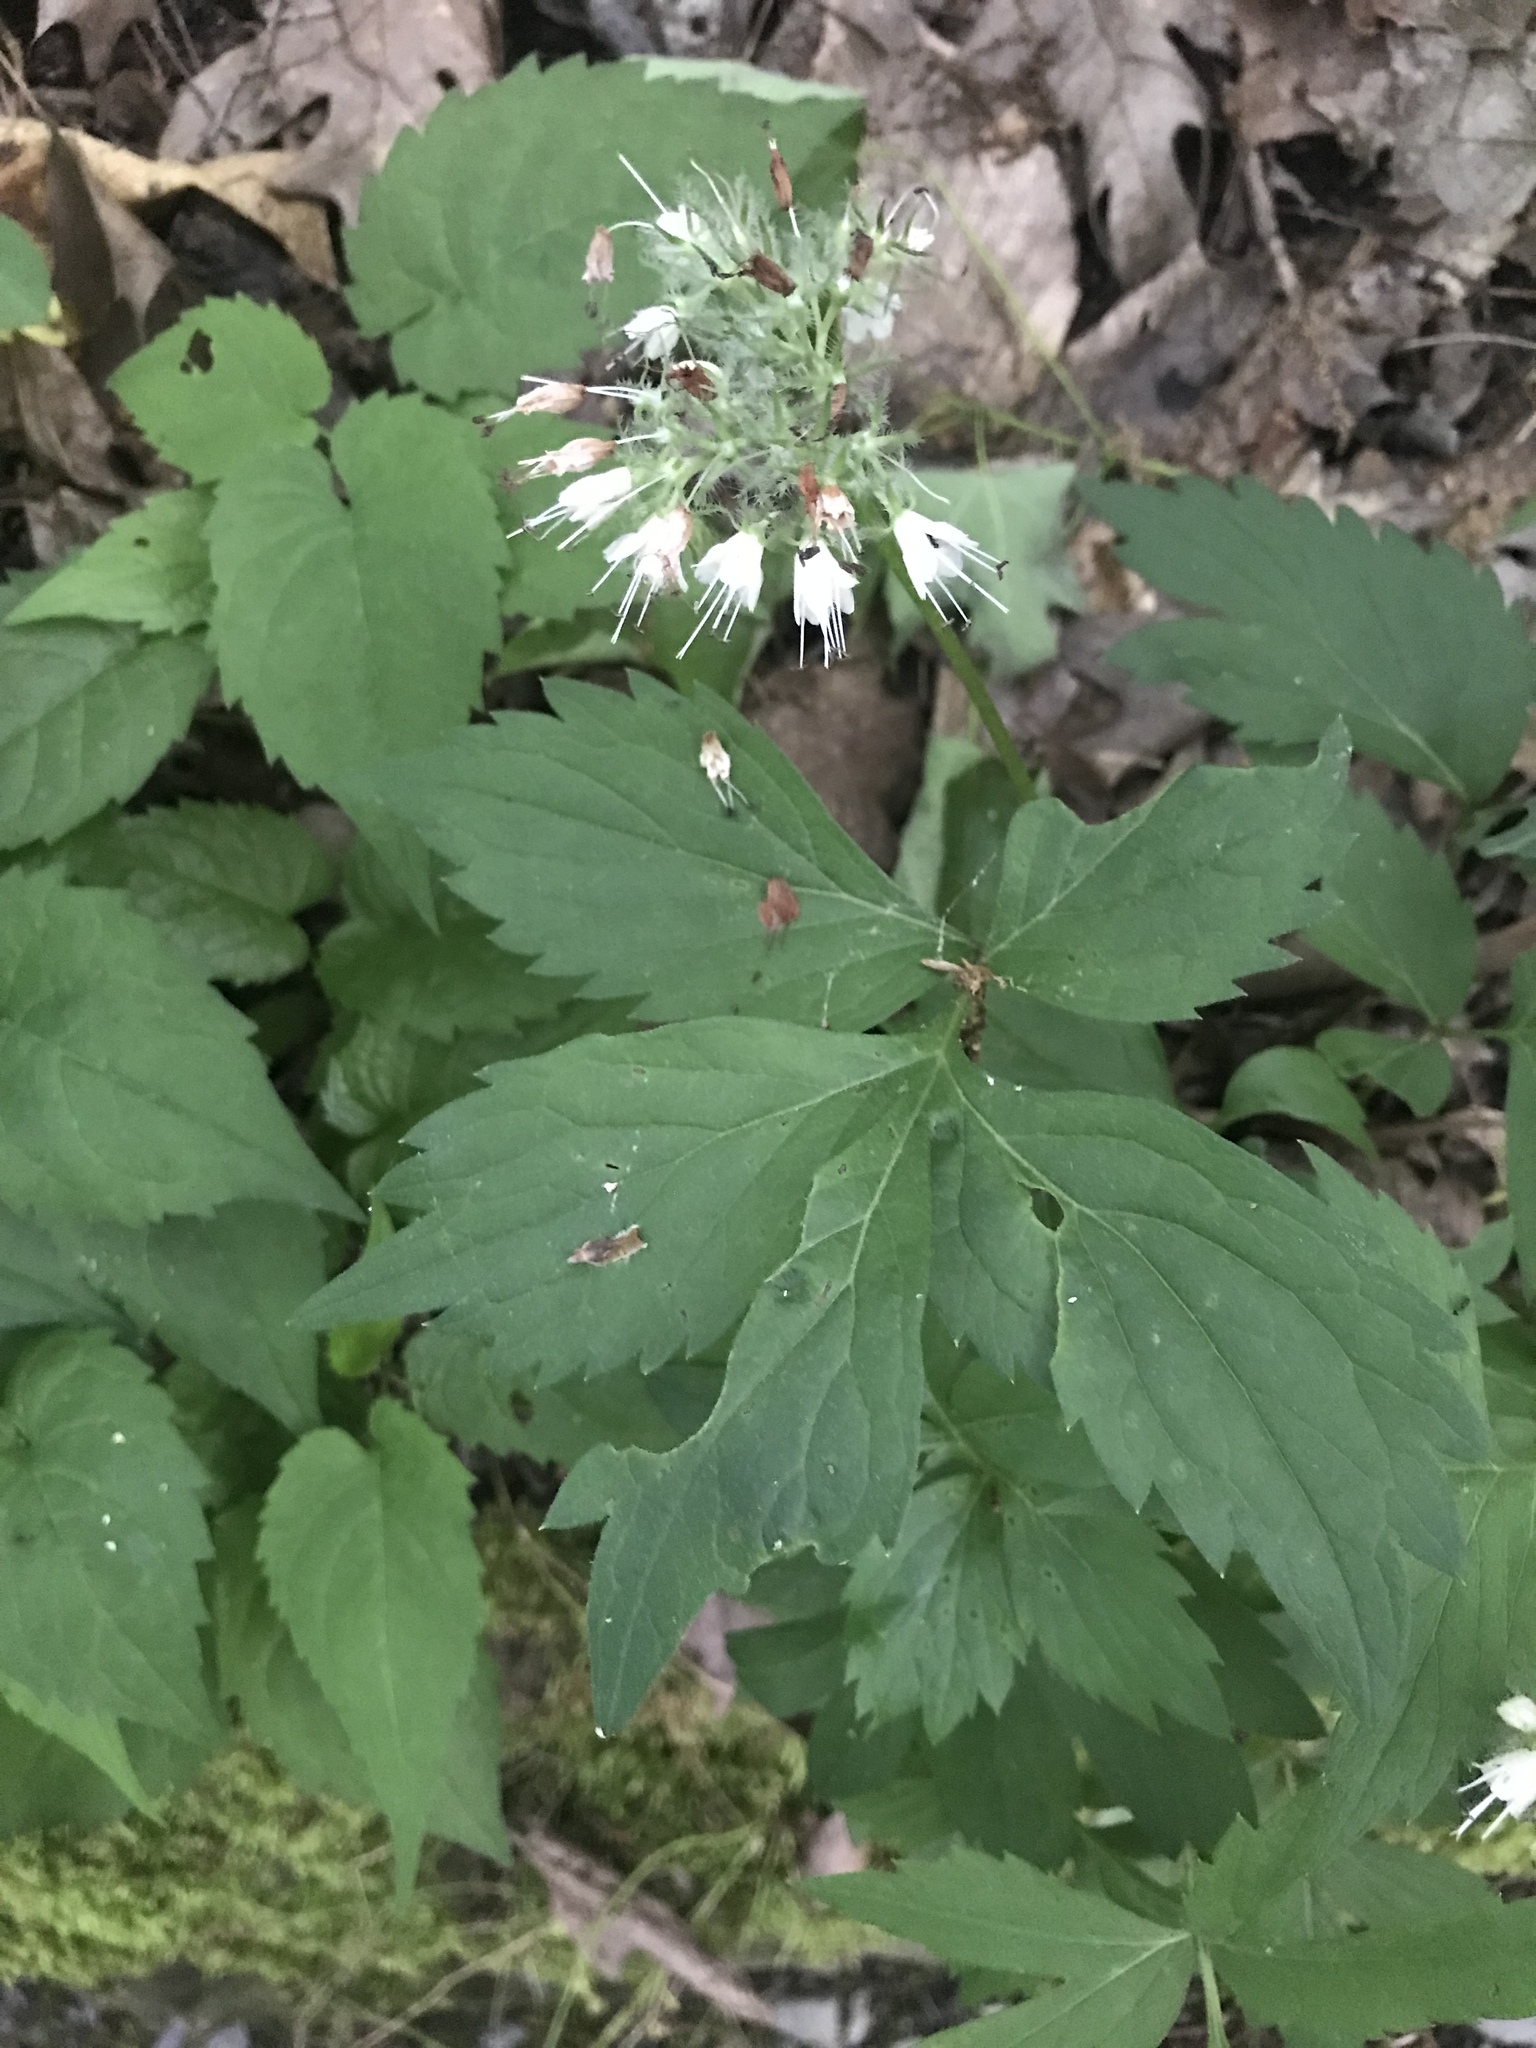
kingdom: Plantae
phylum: Tracheophyta
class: Magnoliopsida
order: Boraginales
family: Hydrophyllaceae
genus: Hydrophyllum
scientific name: Hydrophyllum virginianum
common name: Virginia waterleaf
